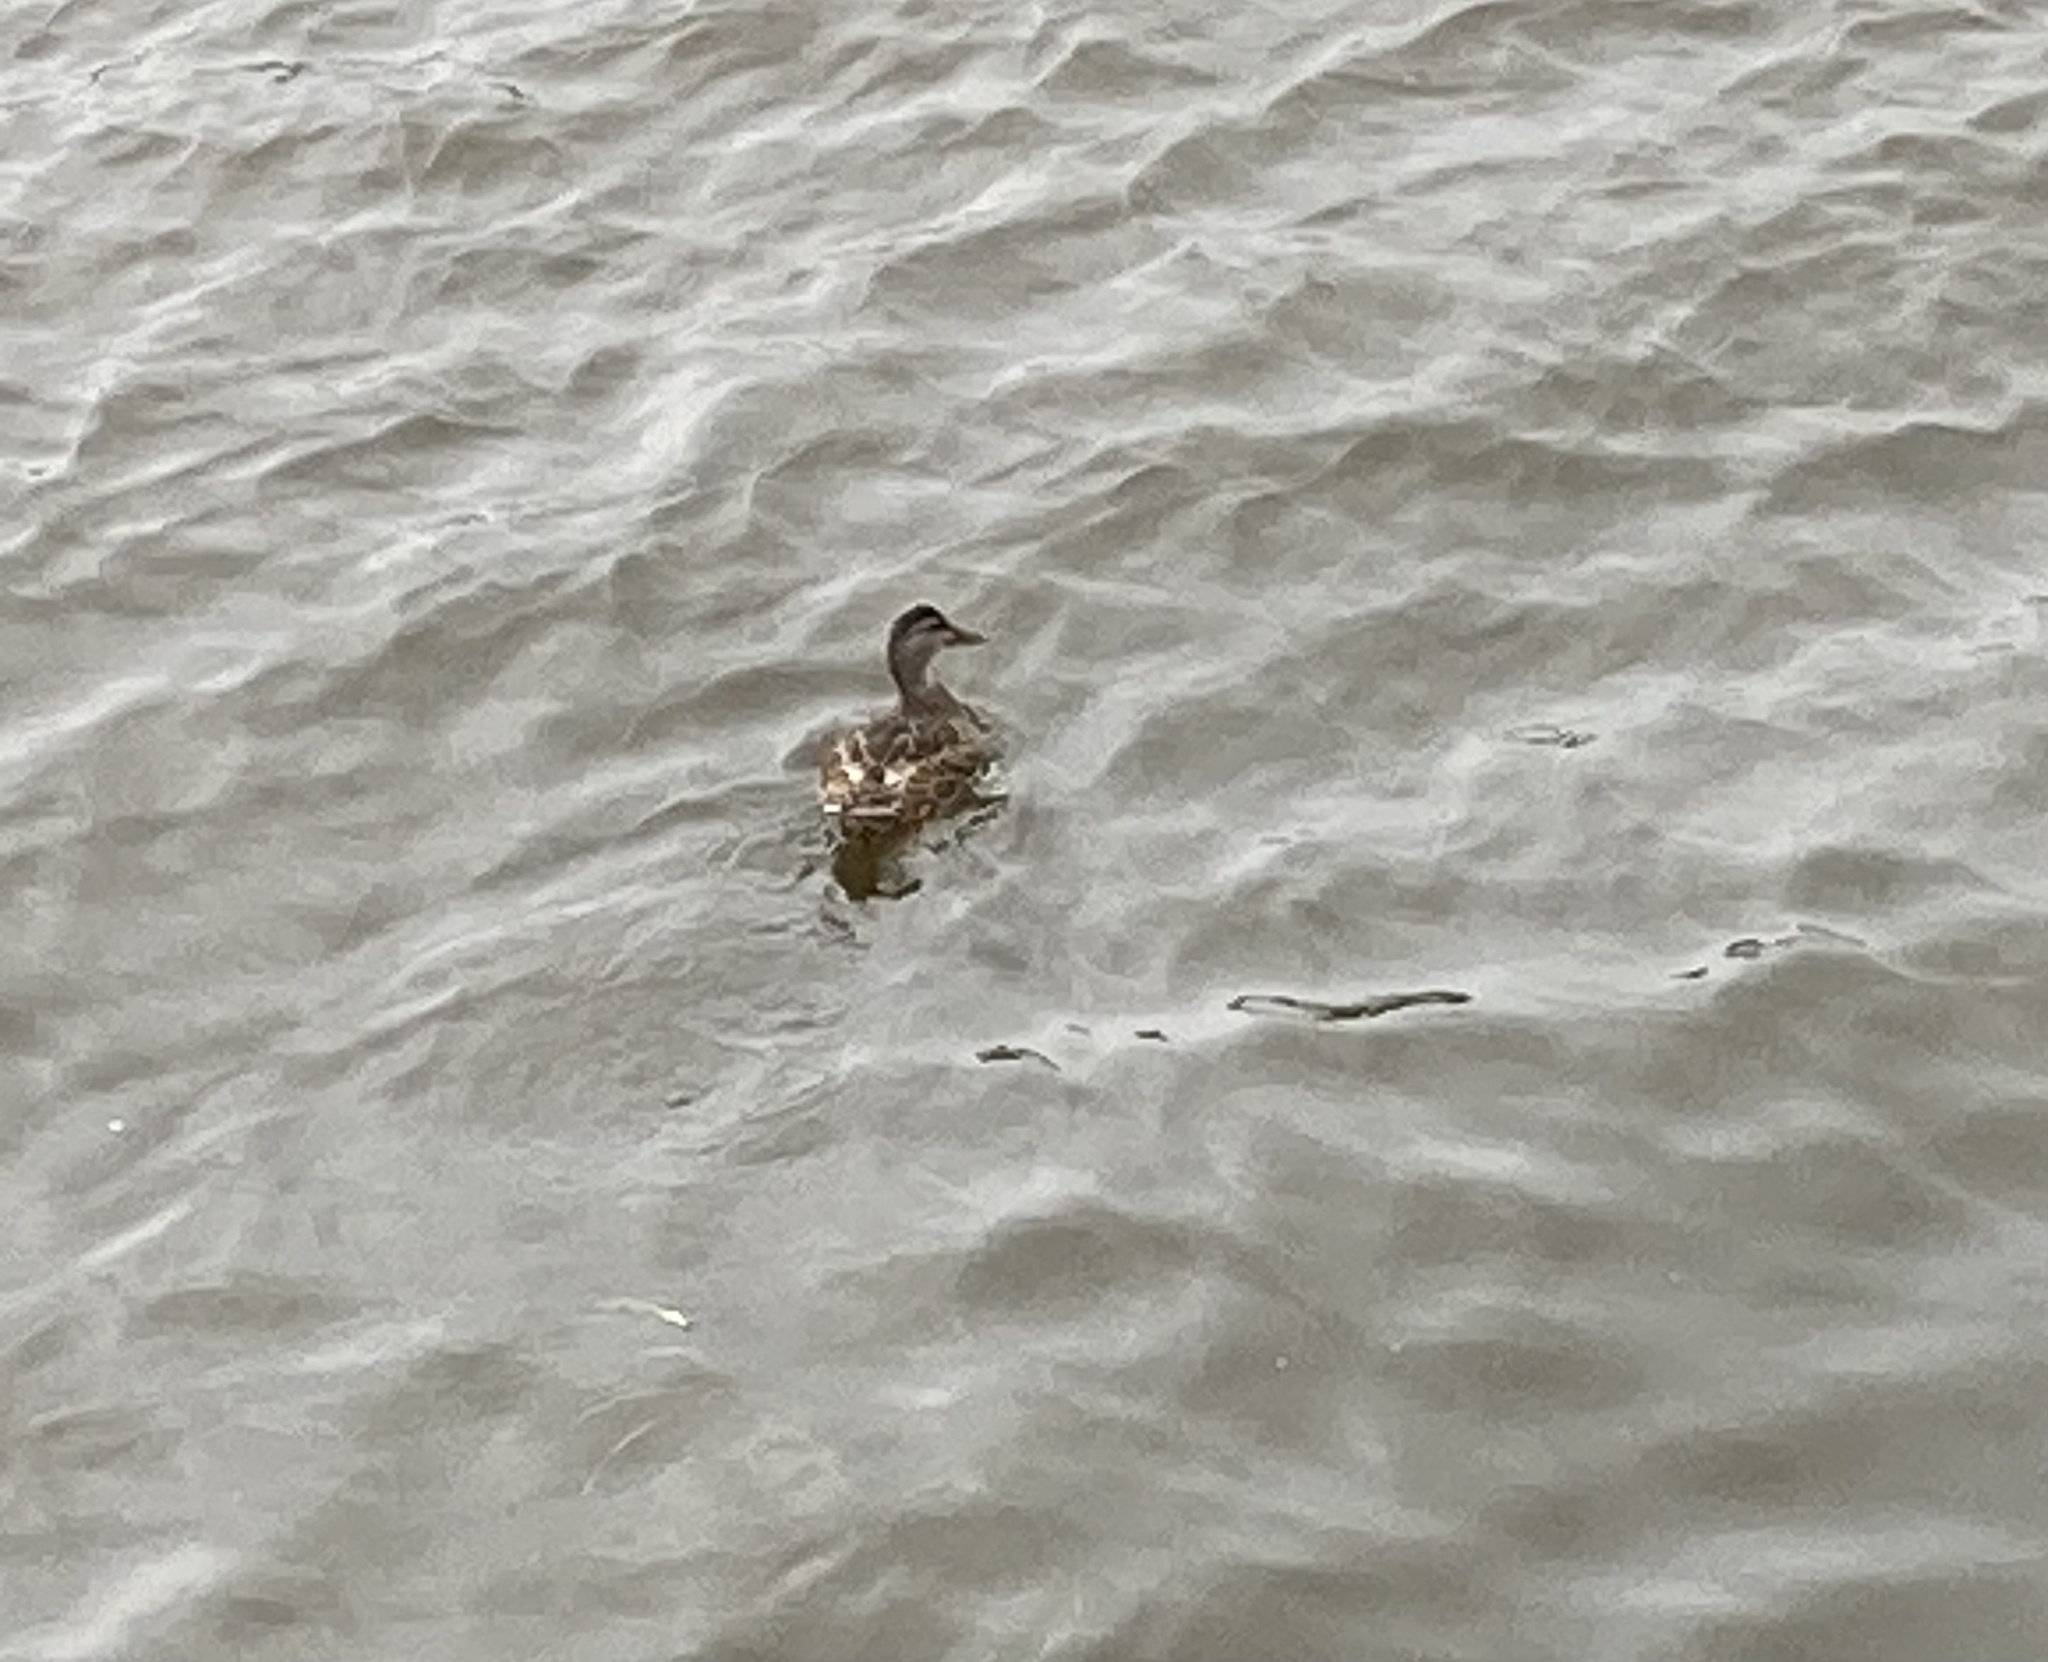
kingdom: Animalia
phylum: Chordata
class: Aves
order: Anseriformes
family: Anatidae
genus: Anas
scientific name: Anas platyrhynchos
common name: Mallard
